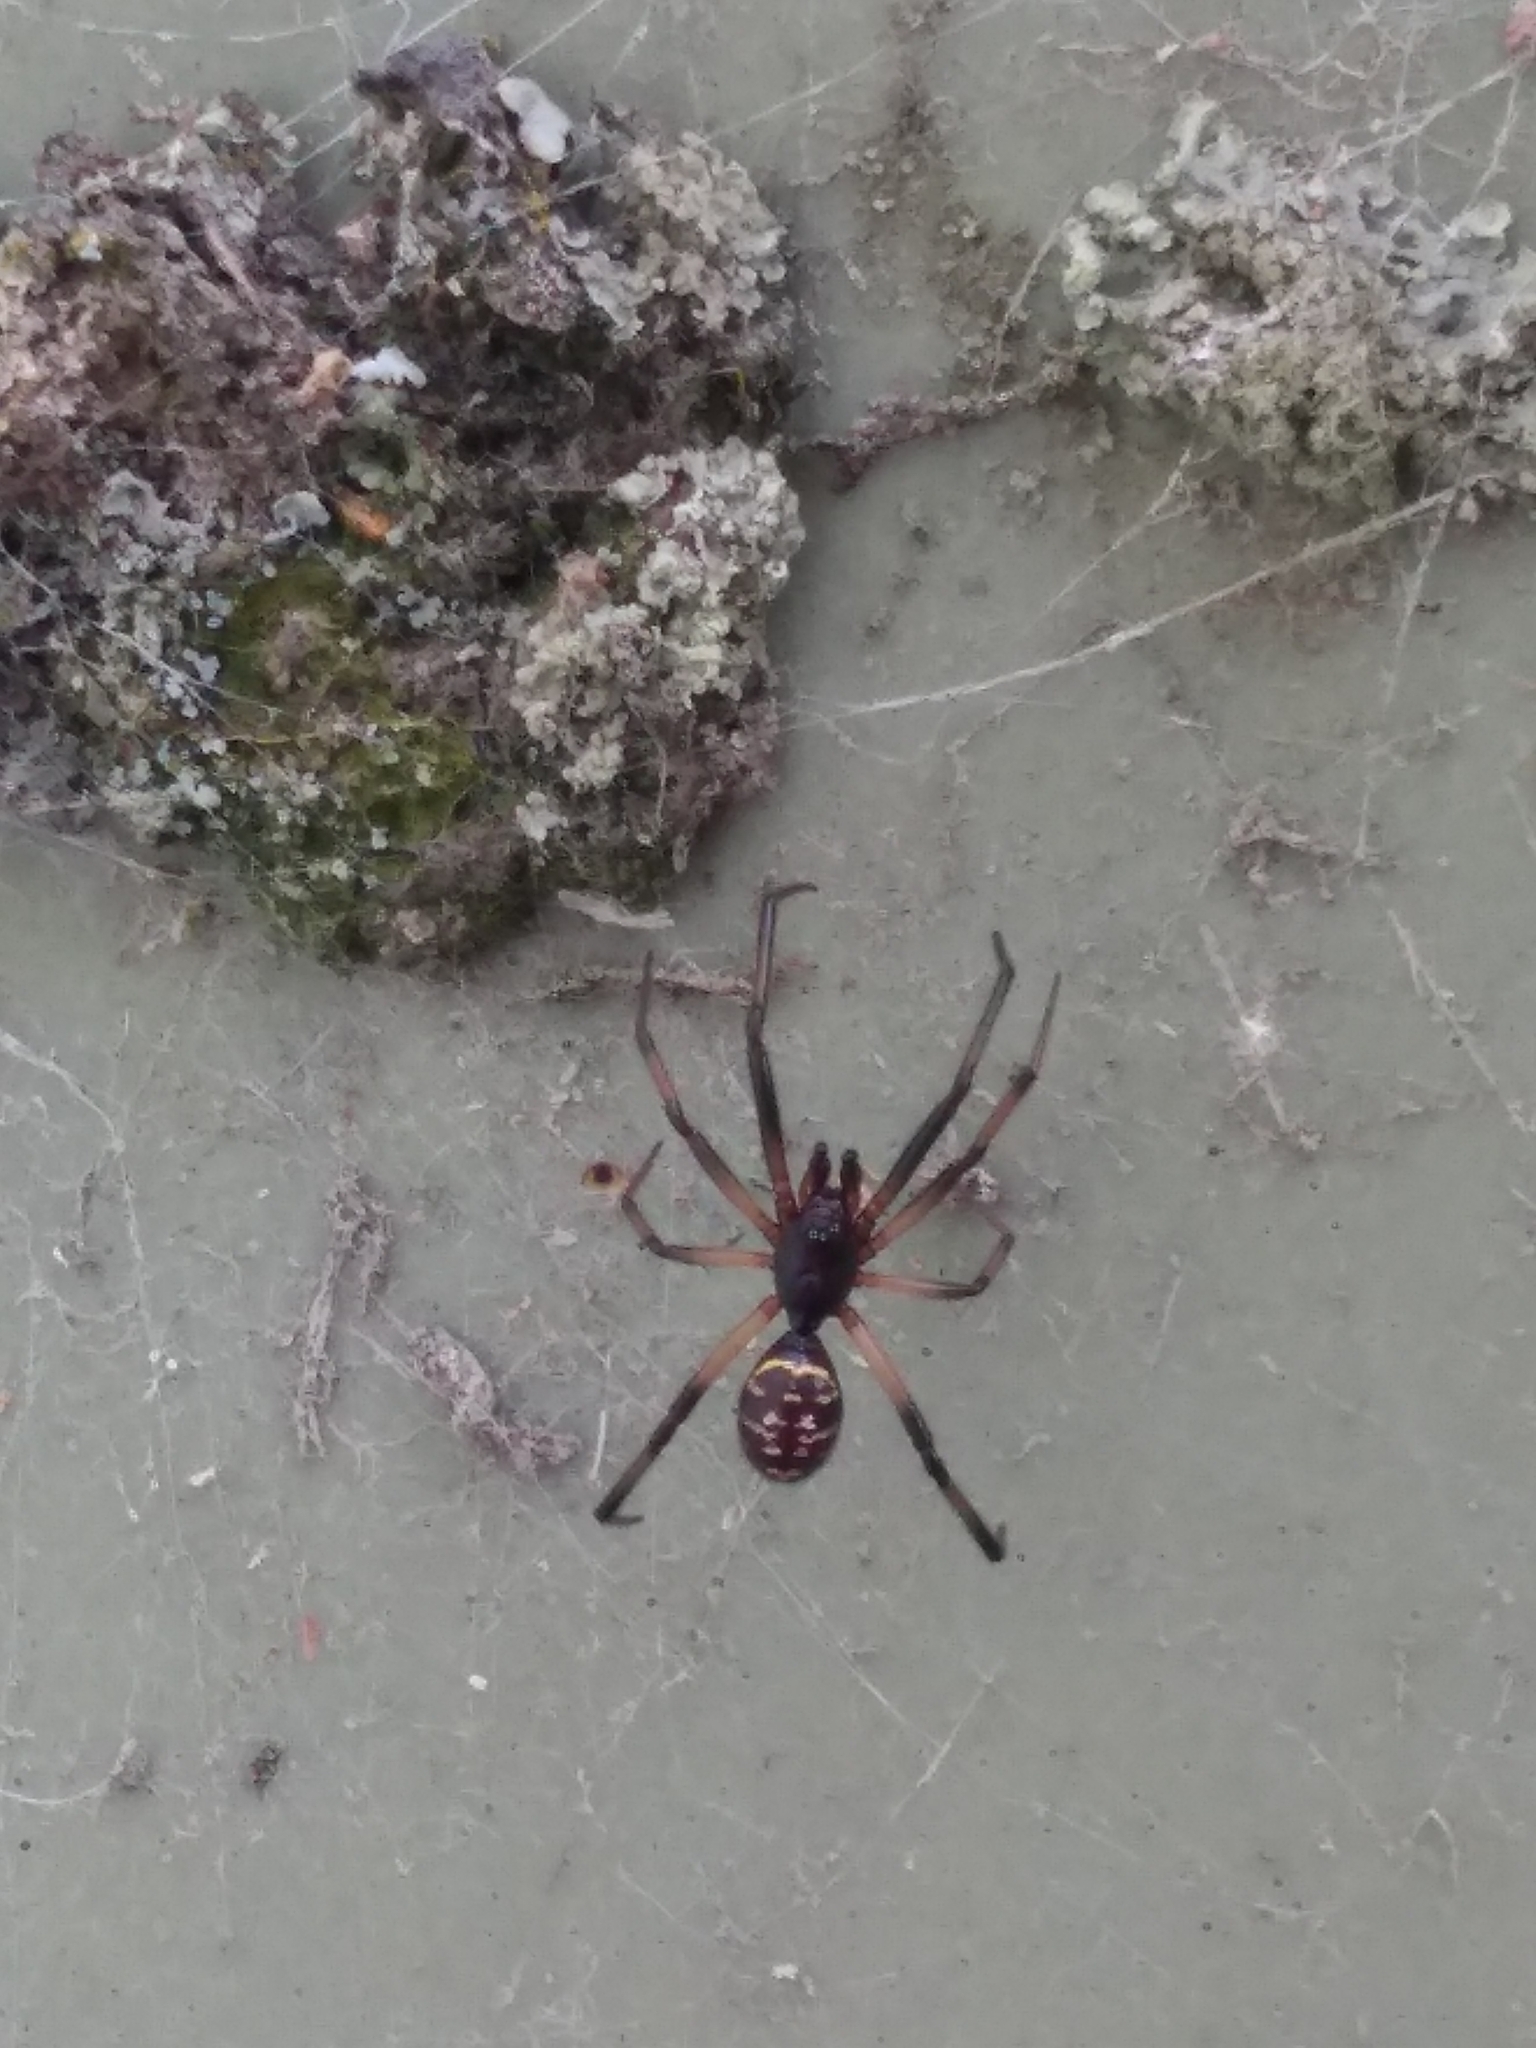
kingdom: Animalia
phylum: Arthropoda
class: Arachnida
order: Araneae
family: Theridiidae
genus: Steatoda
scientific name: Steatoda capensis
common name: Cobweb weaver
